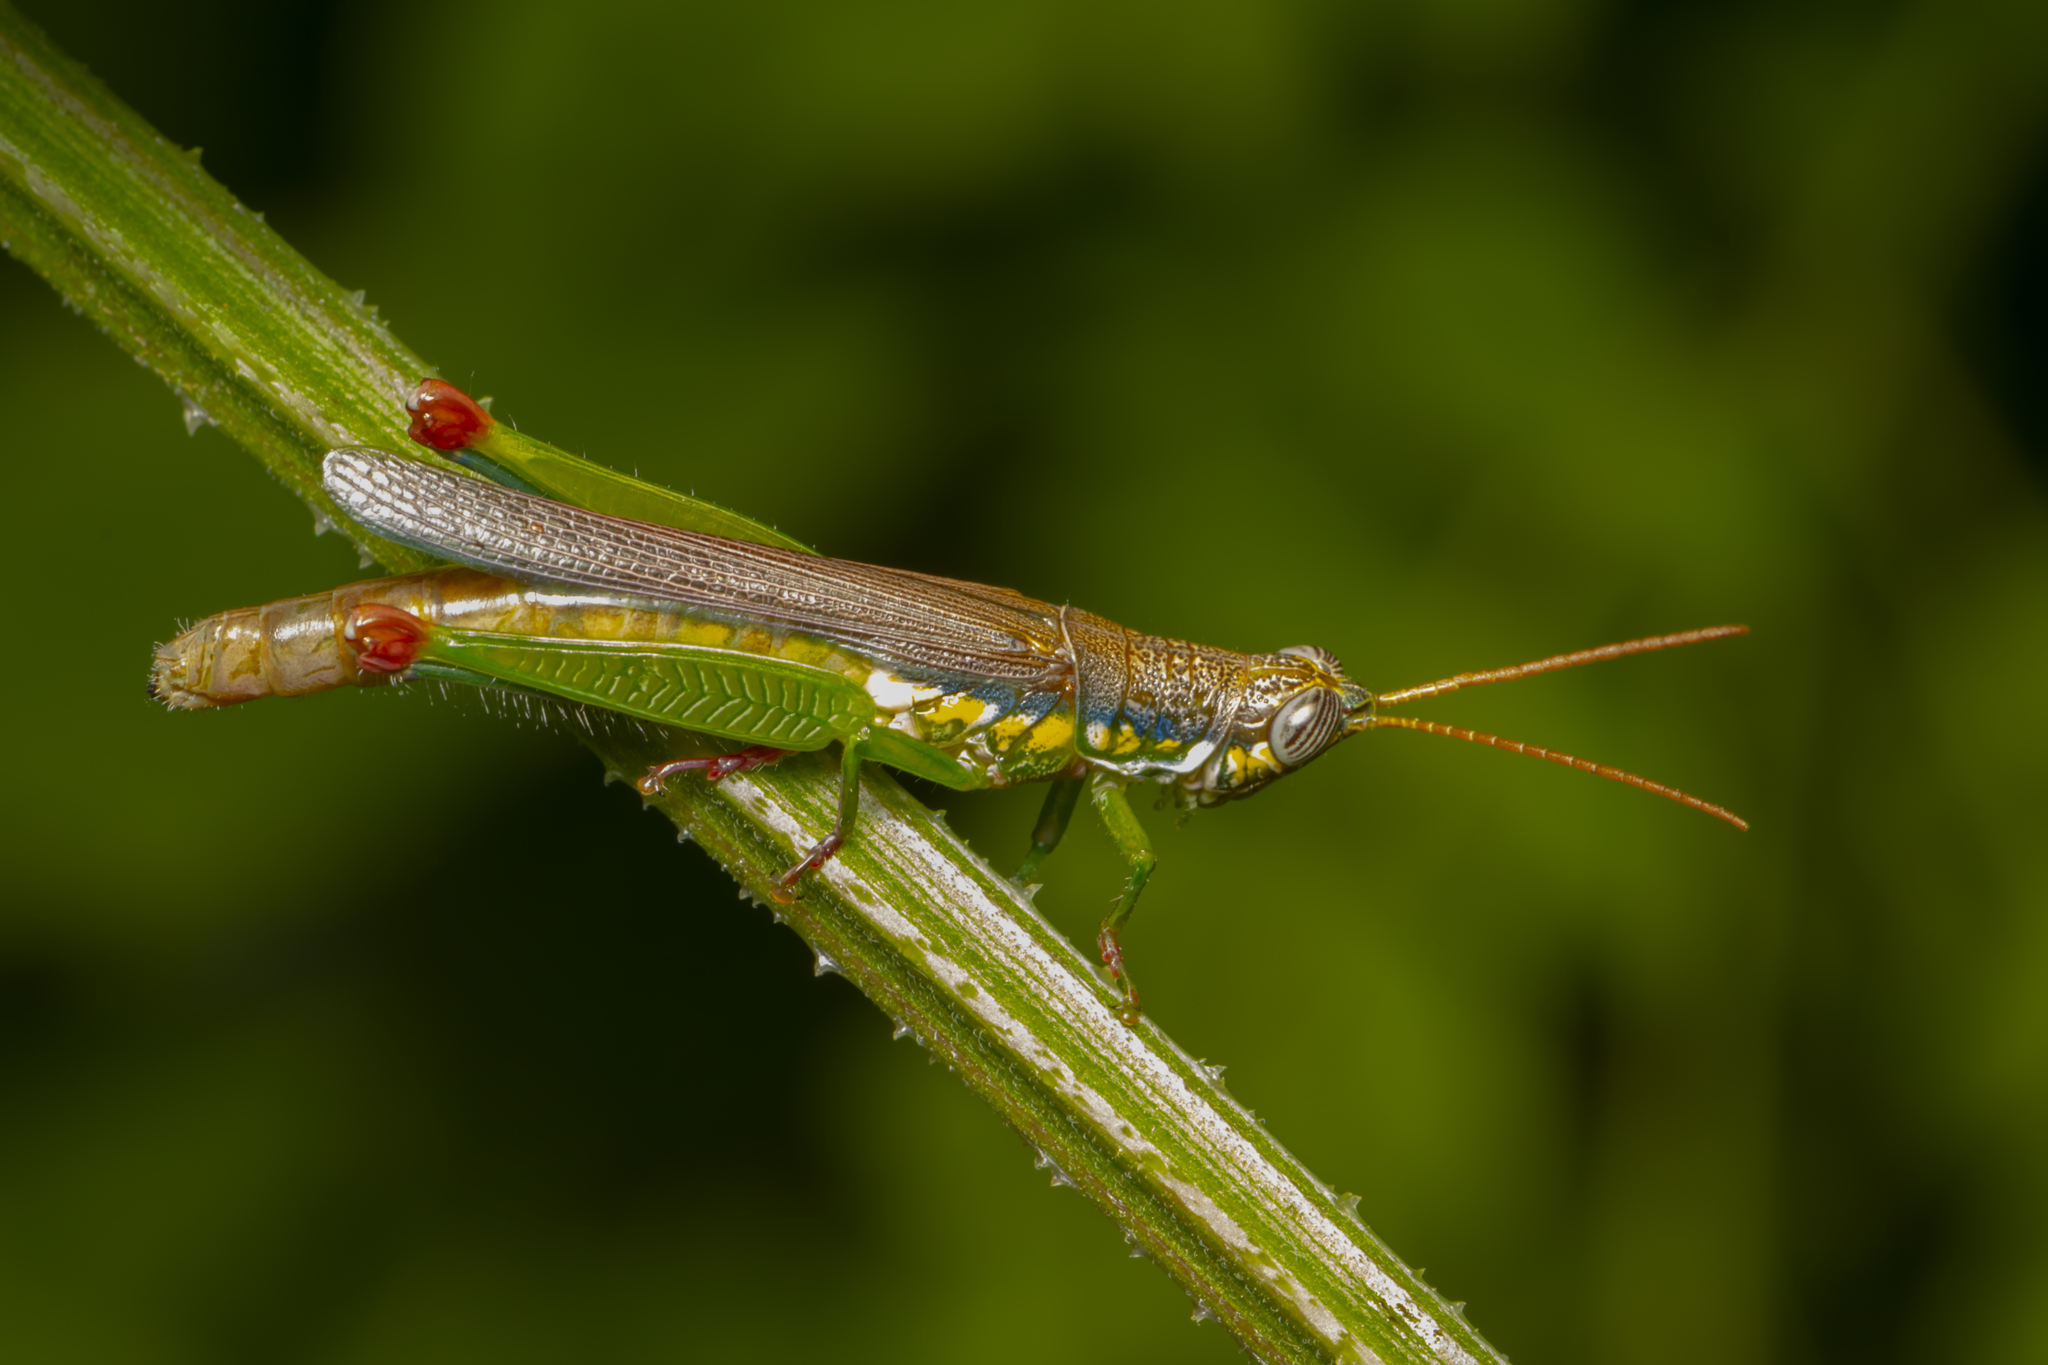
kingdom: Animalia
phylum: Arthropoda
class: Insecta
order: Orthoptera
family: Acrididae
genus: Stenopola
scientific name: Stenopola bohlsii
